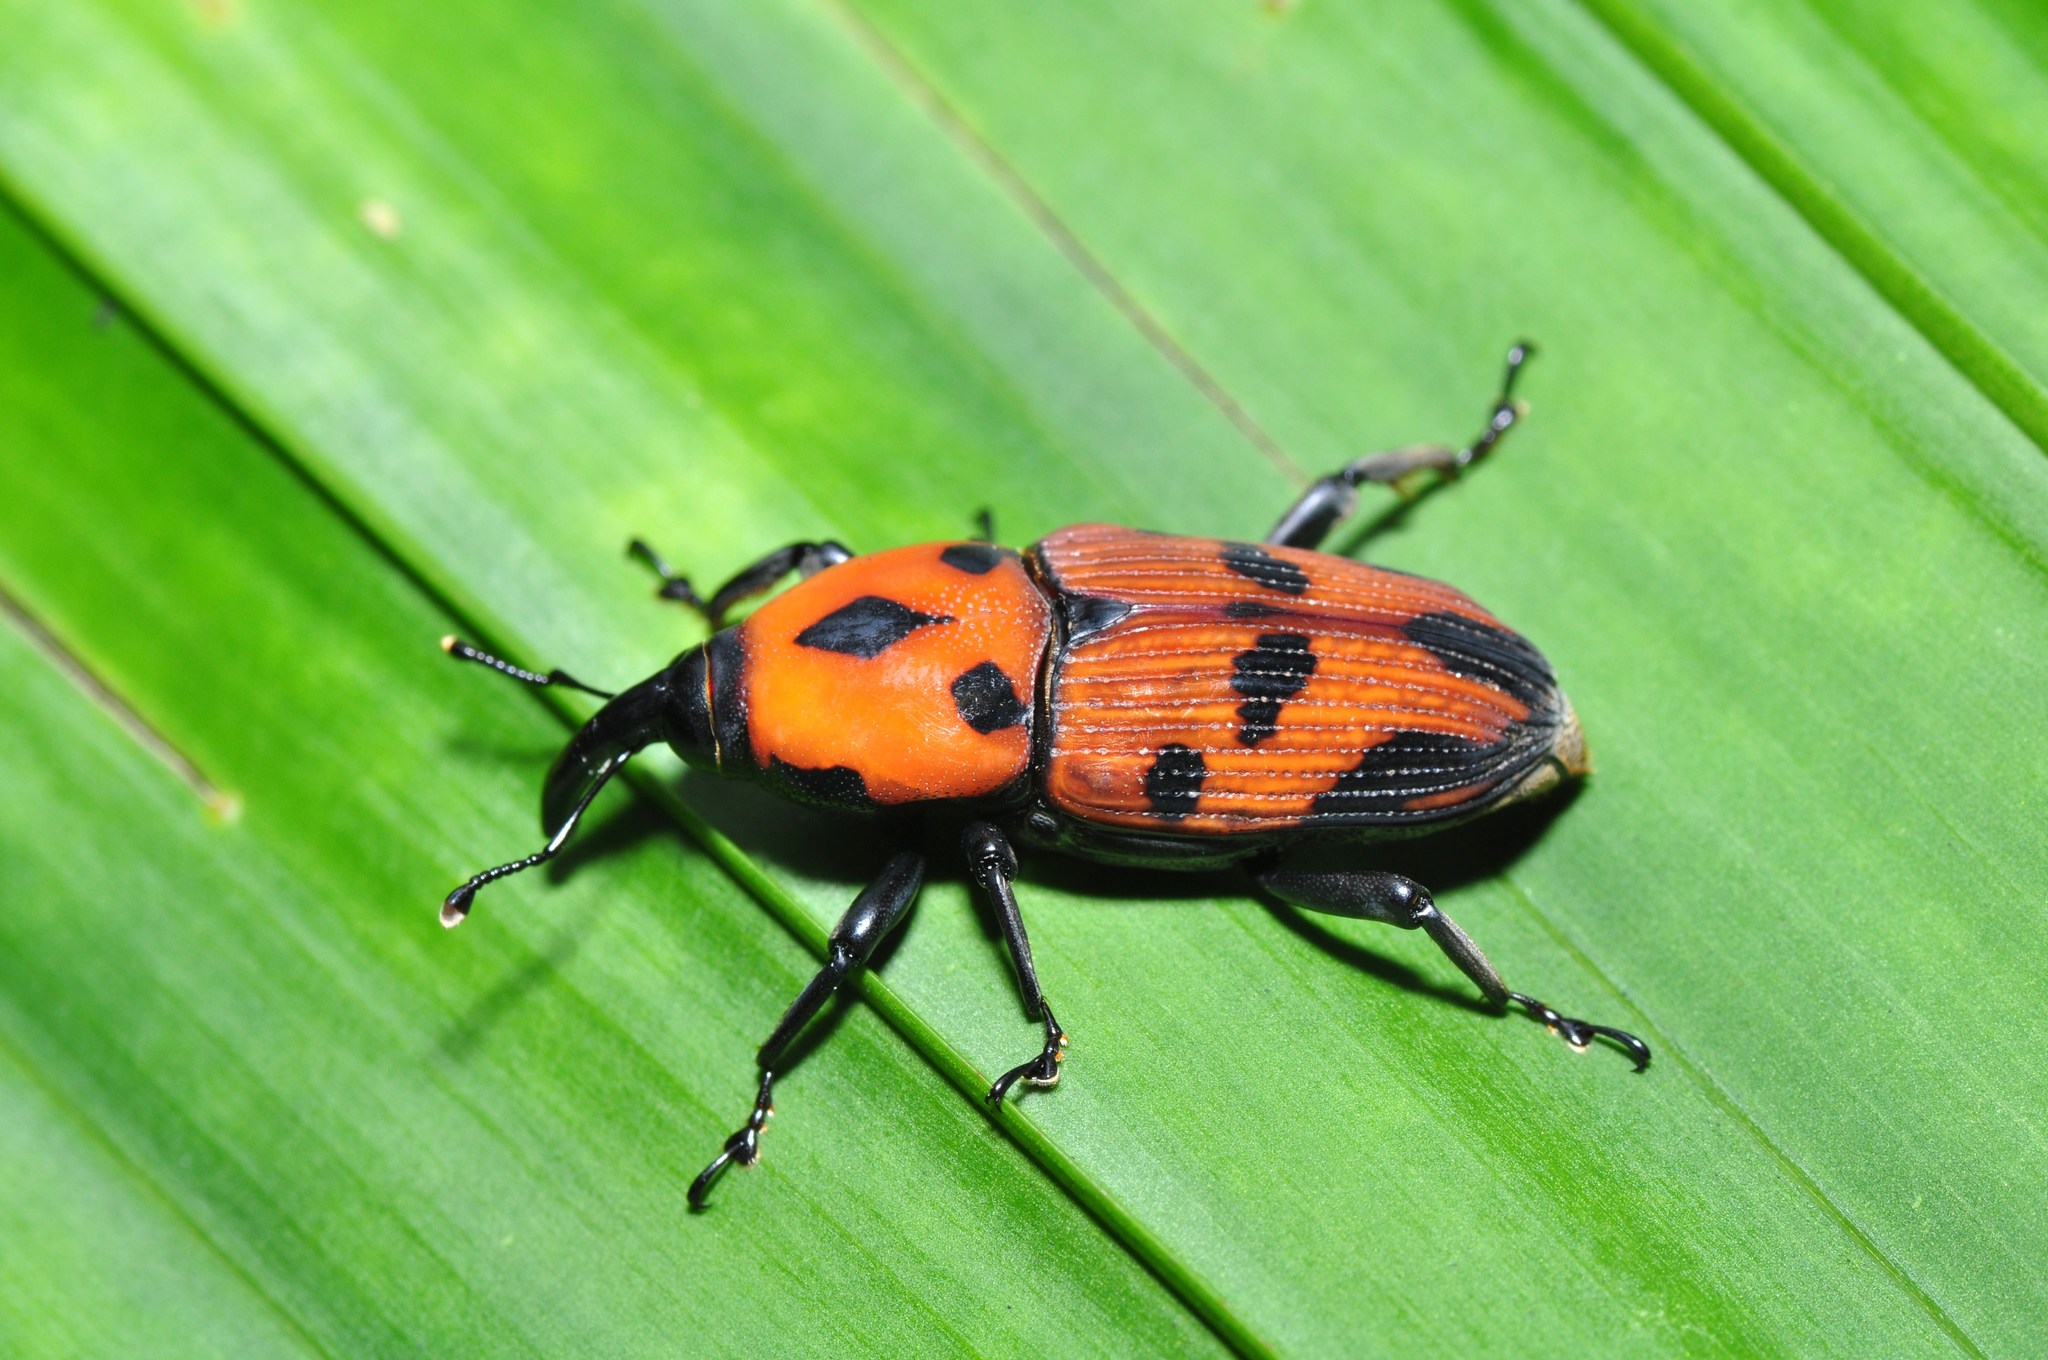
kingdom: Animalia
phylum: Arthropoda
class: Insecta
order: Coleoptera
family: Dryophthoridae
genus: Metamasius
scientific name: Metamasius dimidiatipennis
